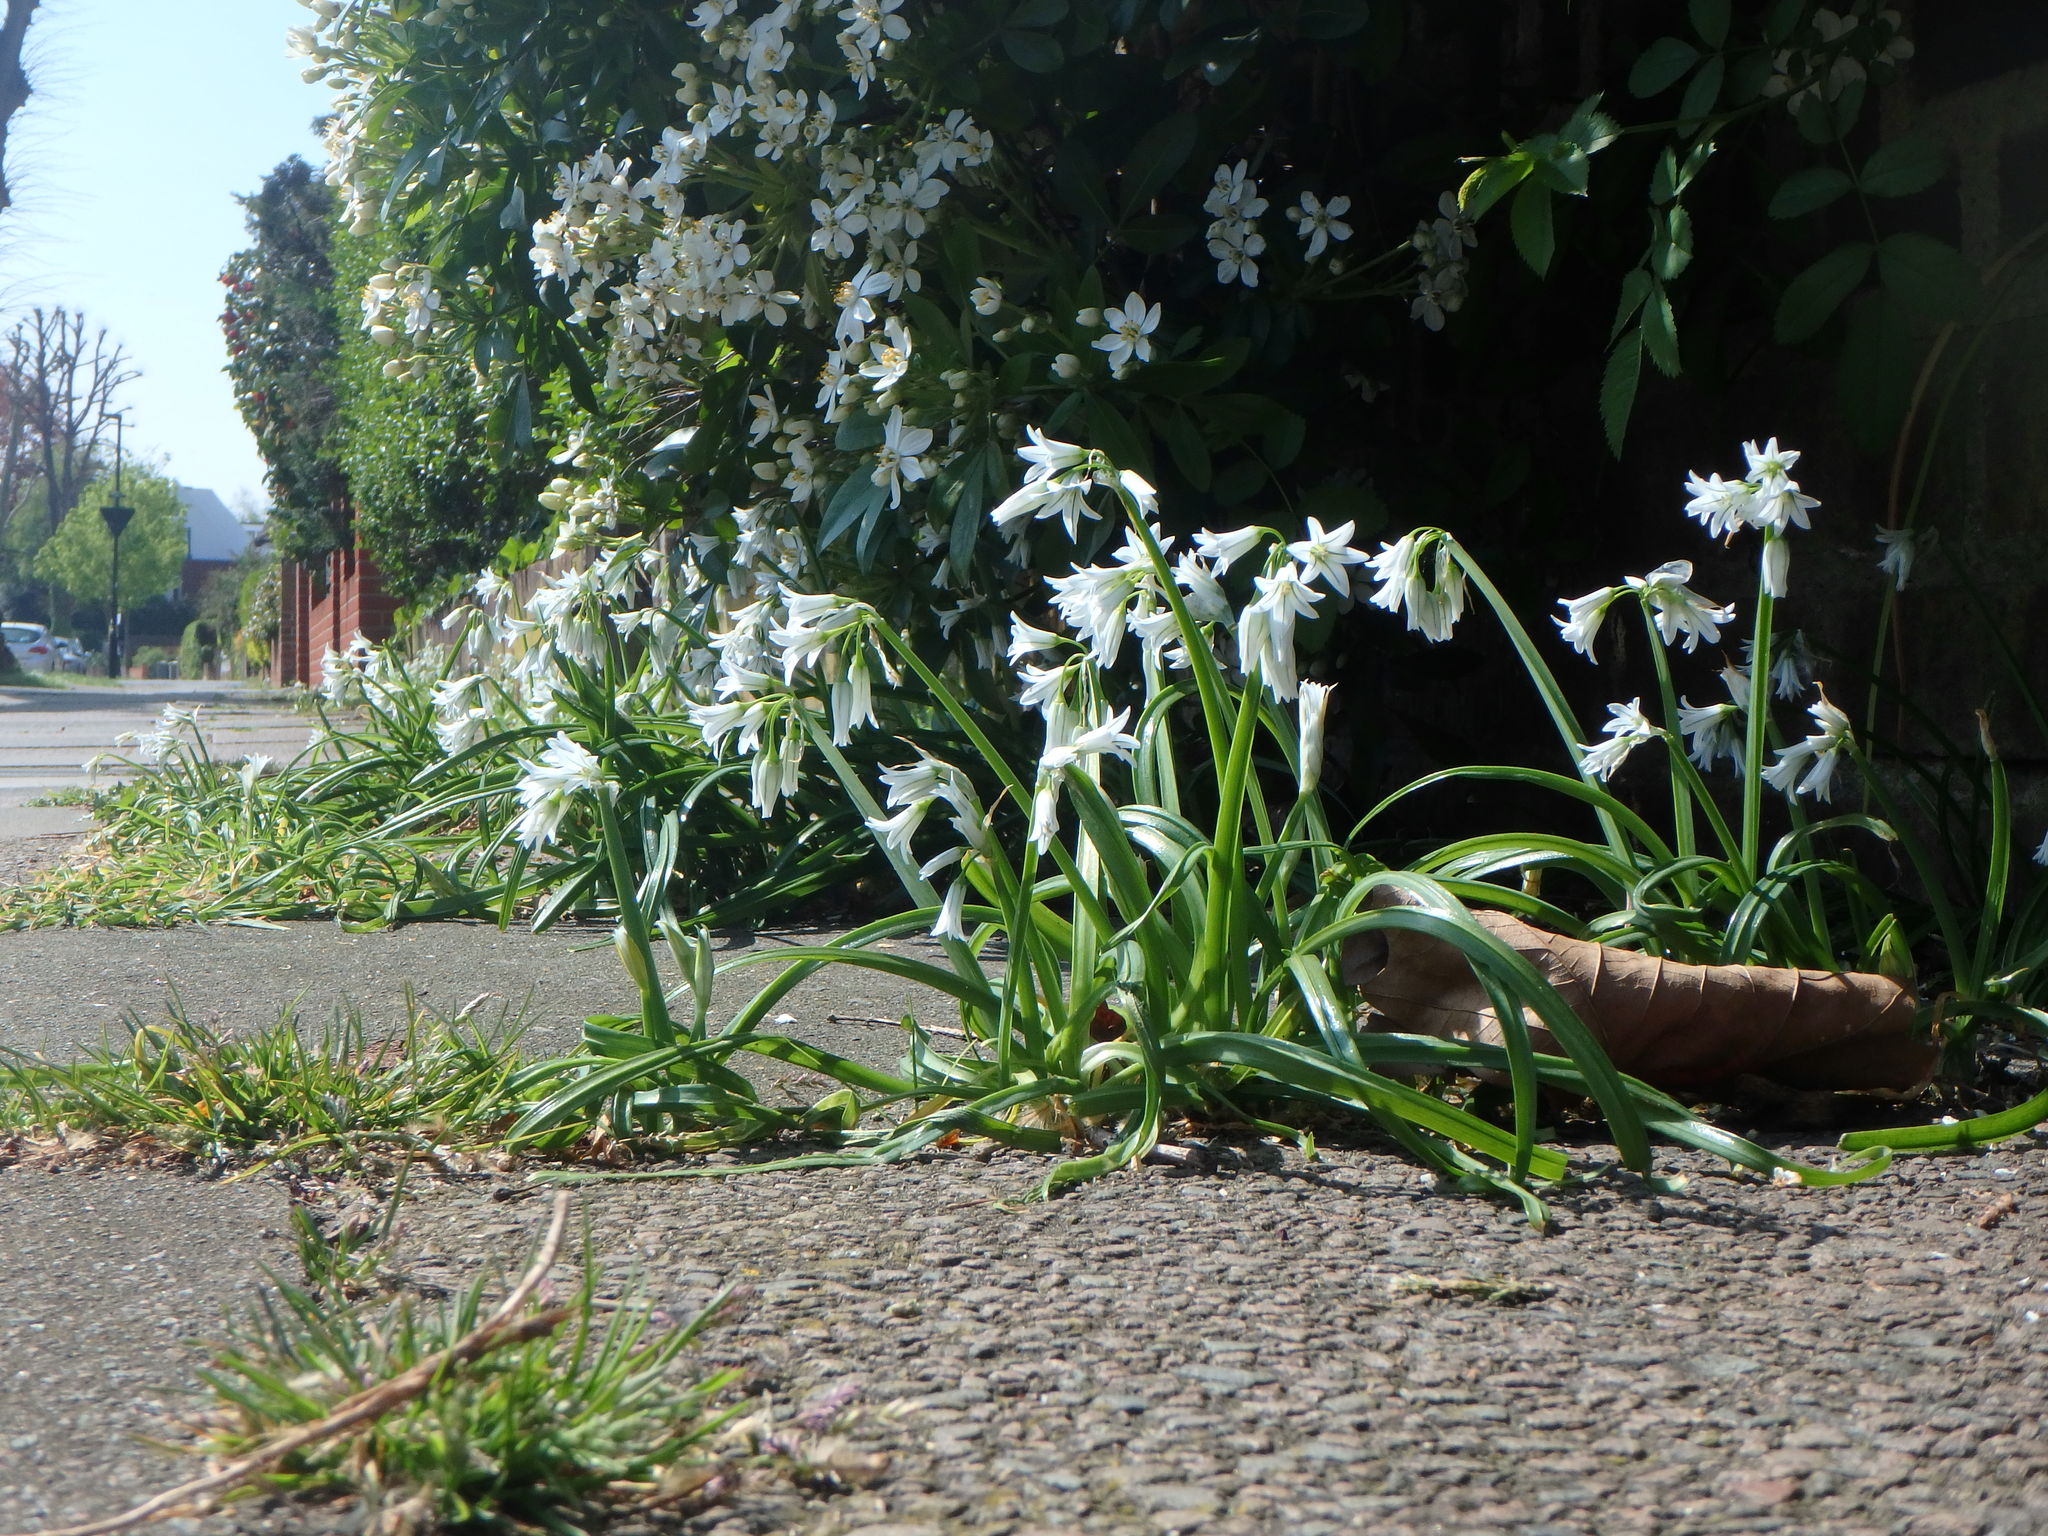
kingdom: Plantae
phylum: Tracheophyta
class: Liliopsida
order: Asparagales
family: Amaryllidaceae
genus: Allium
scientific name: Allium triquetrum
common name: Three-cornered garlic
